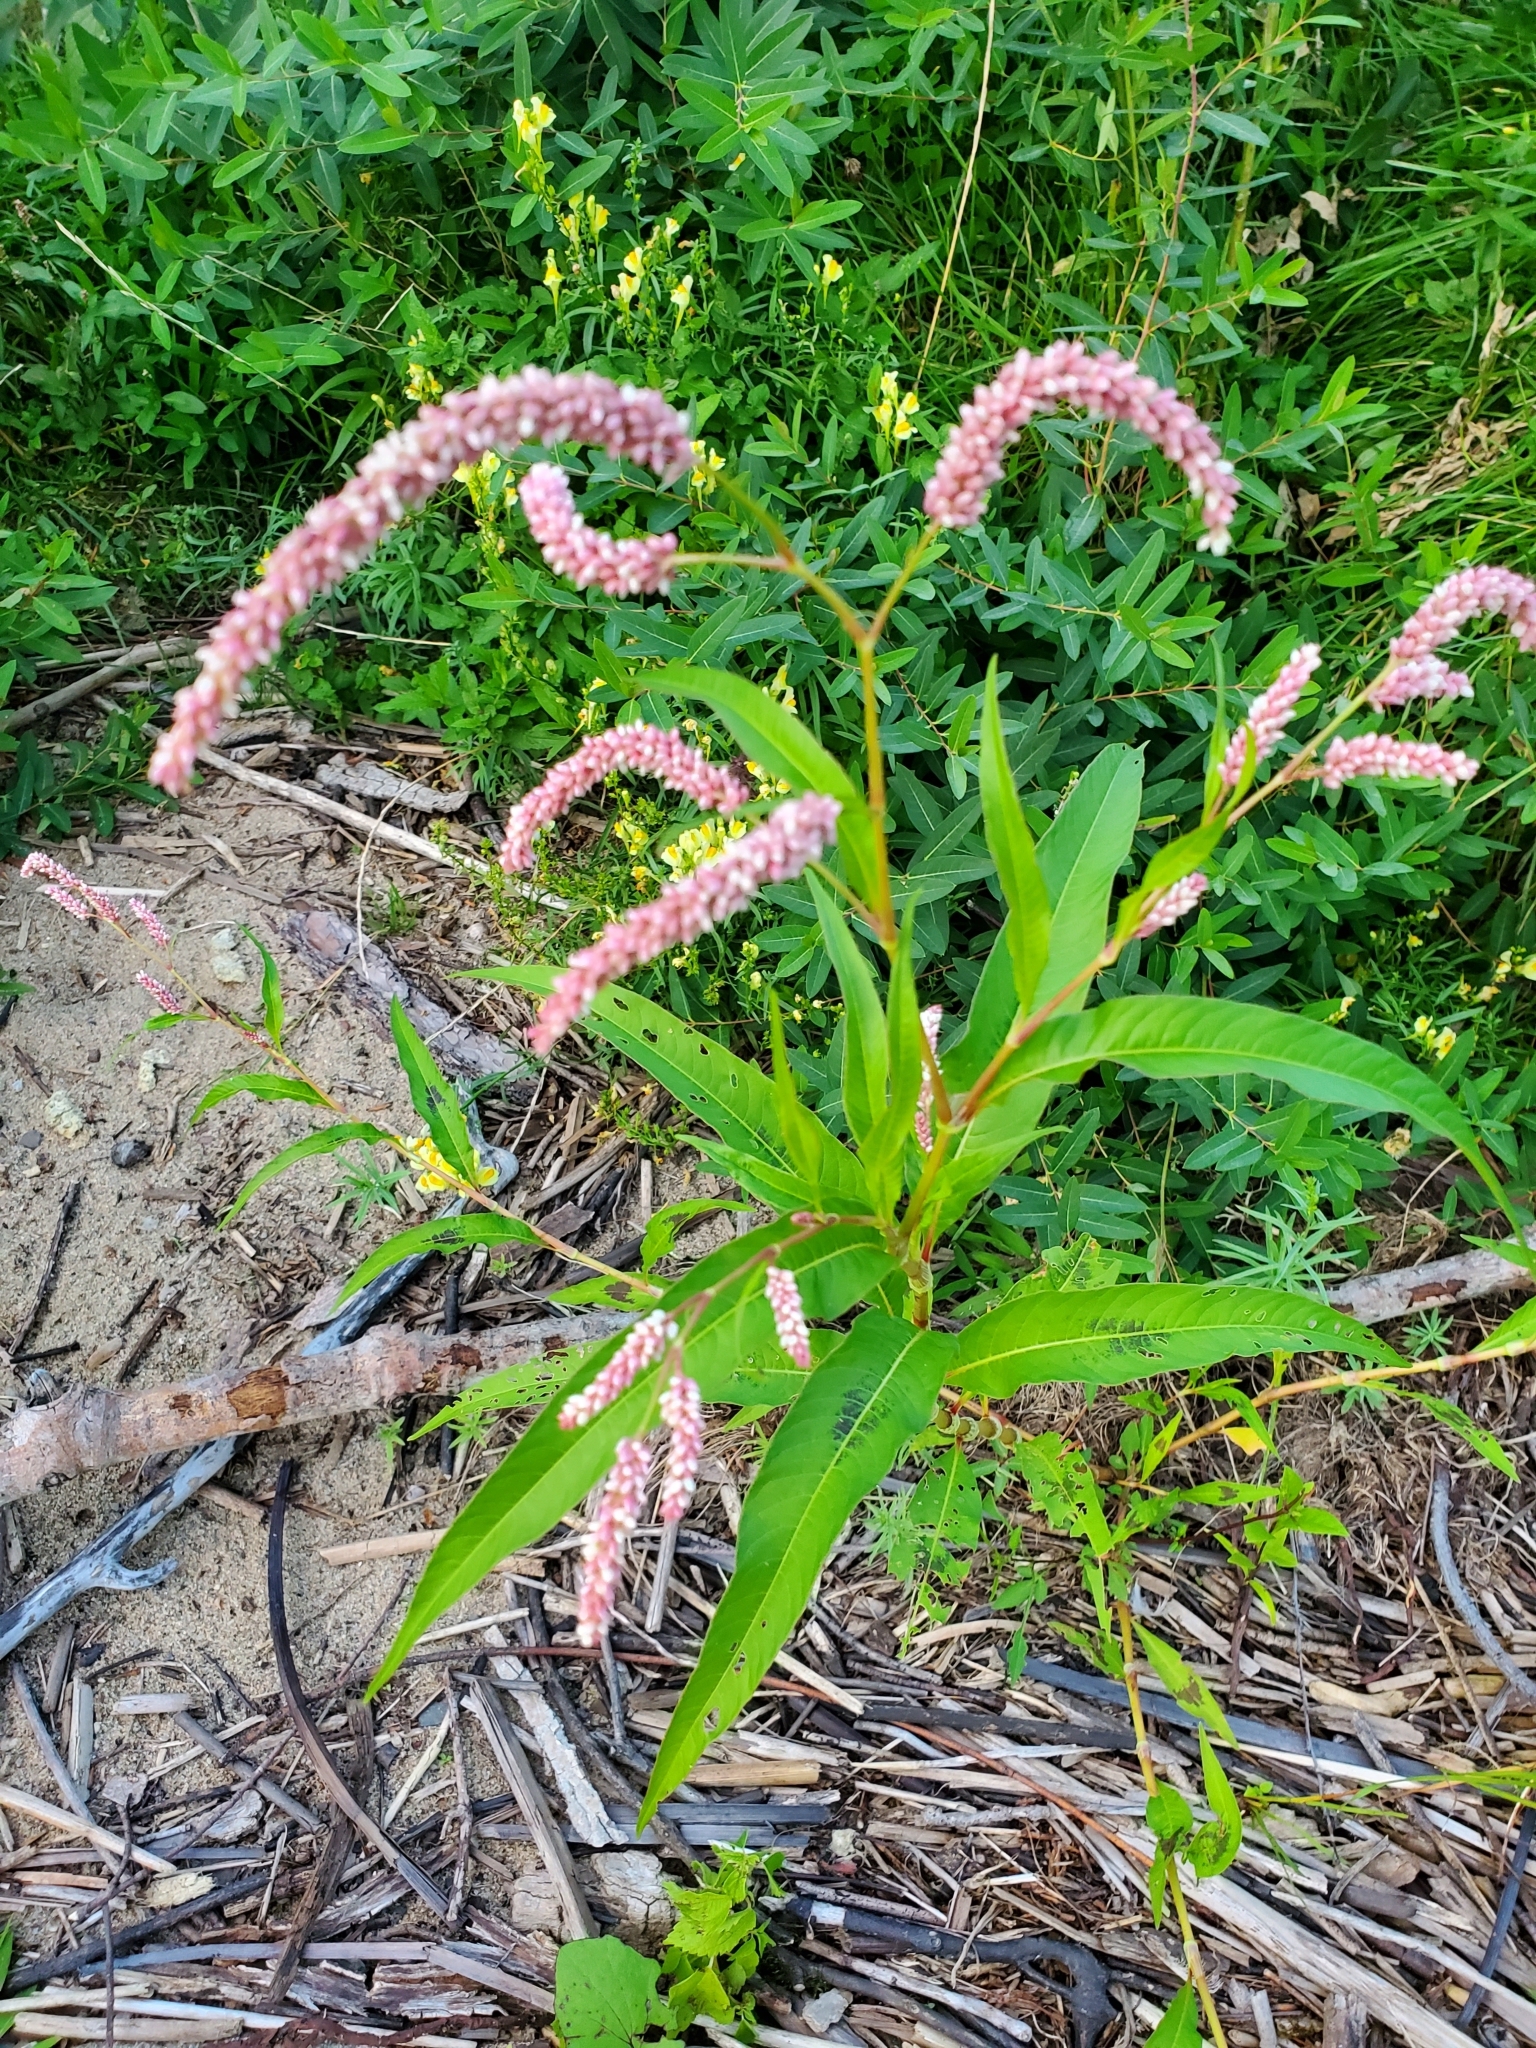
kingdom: Plantae
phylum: Tracheophyta
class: Magnoliopsida
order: Caryophyllales
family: Polygonaceae
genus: Persicaria
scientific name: Persicaria lapathifolia
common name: Curlytop knotweed
